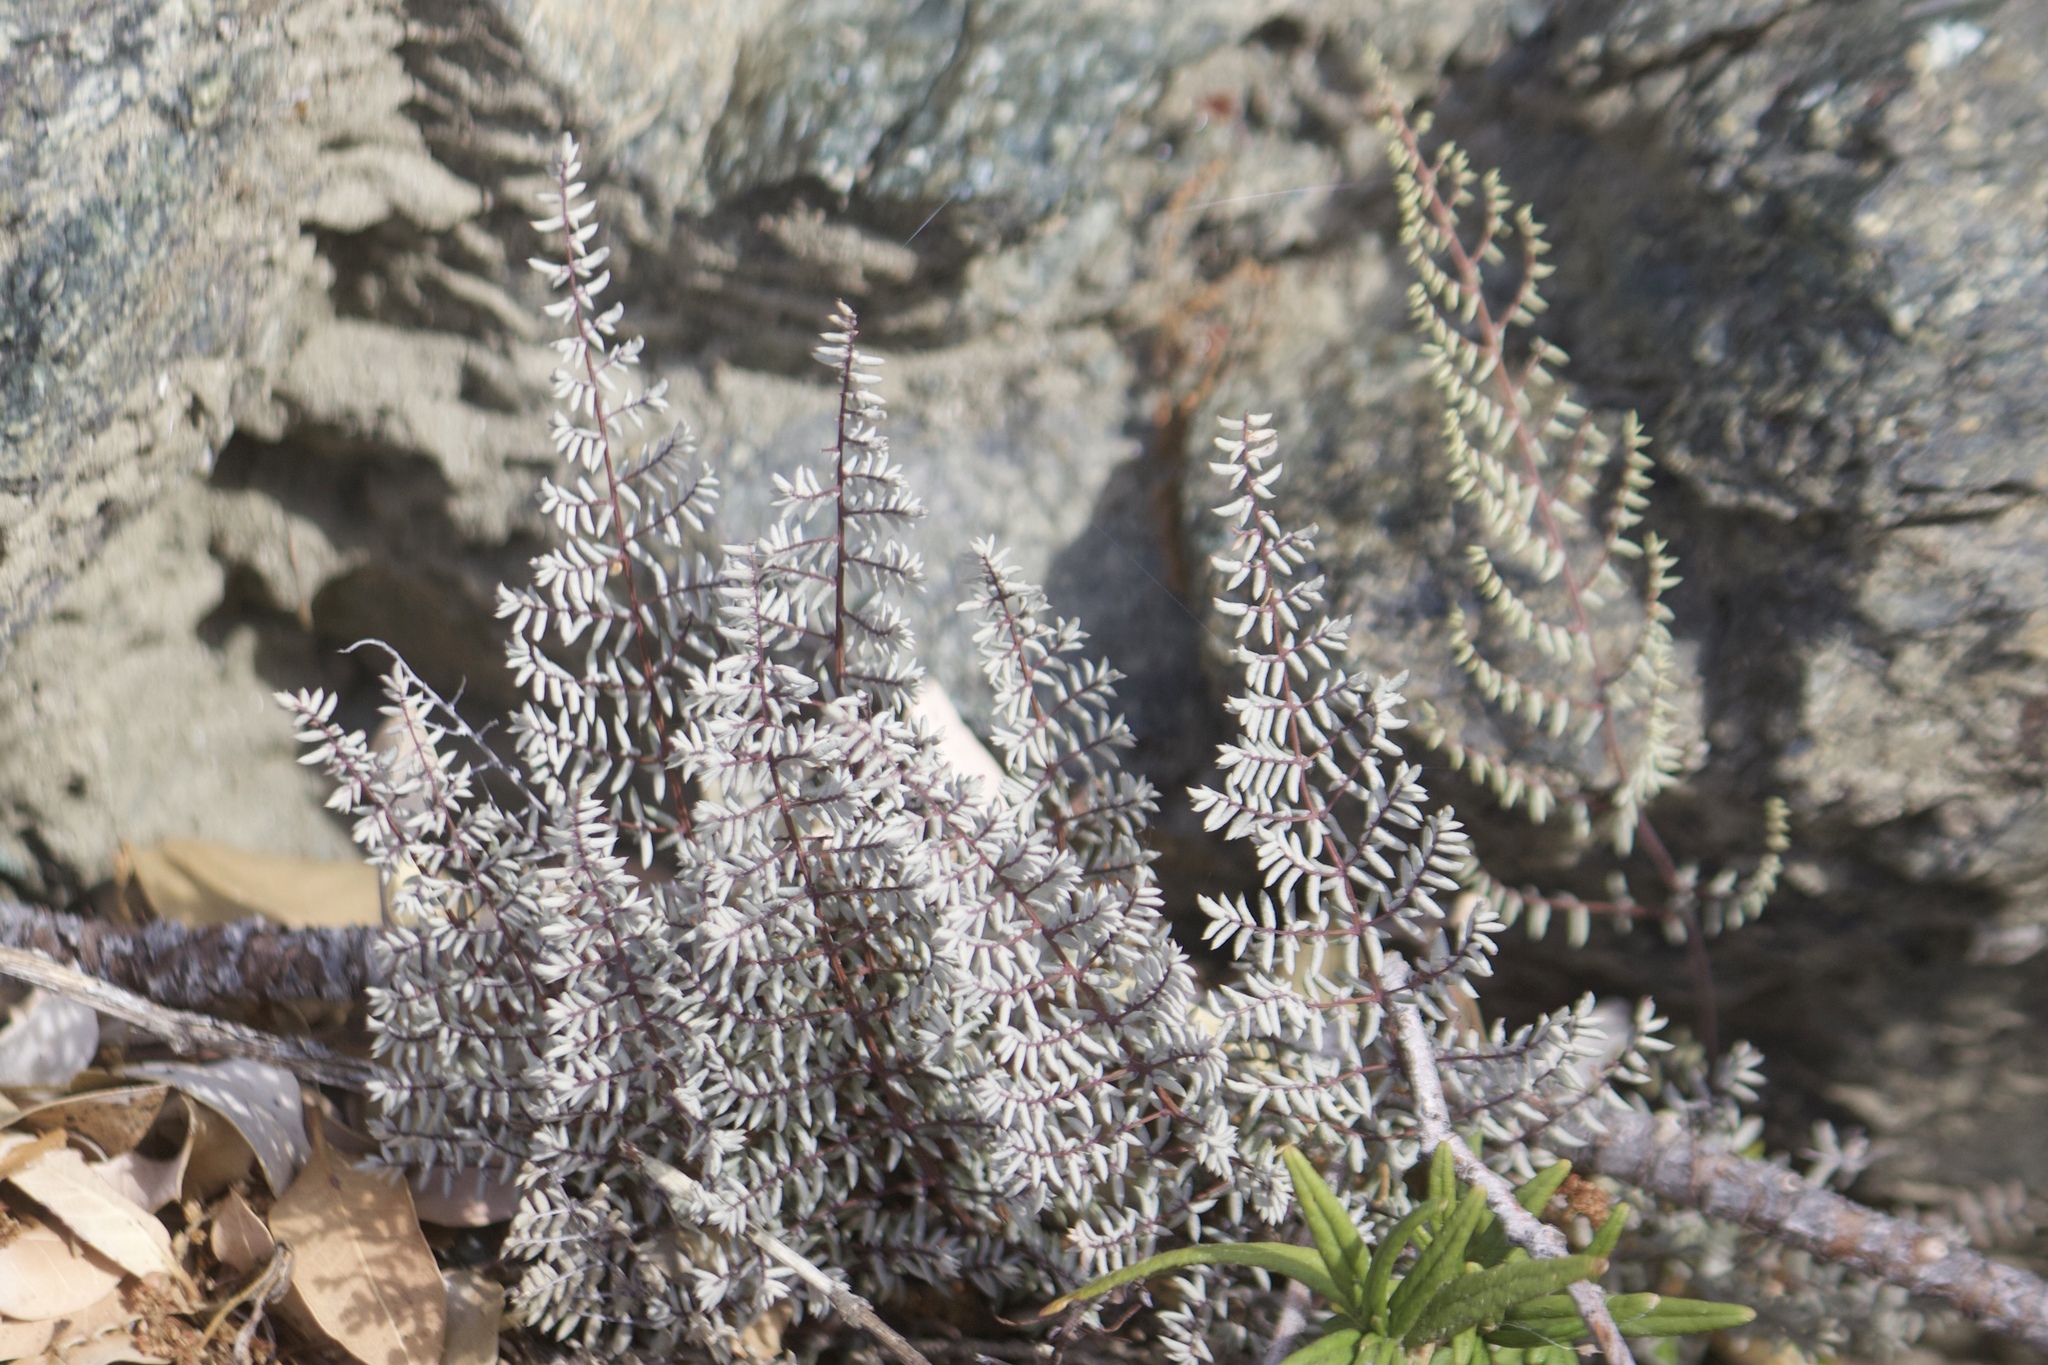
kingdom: Plantae
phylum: Tracheophyta
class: Polypodiopsida
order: Polypodiales
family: Pteridaceae
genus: Pellaea
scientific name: Pellaea mucronata
